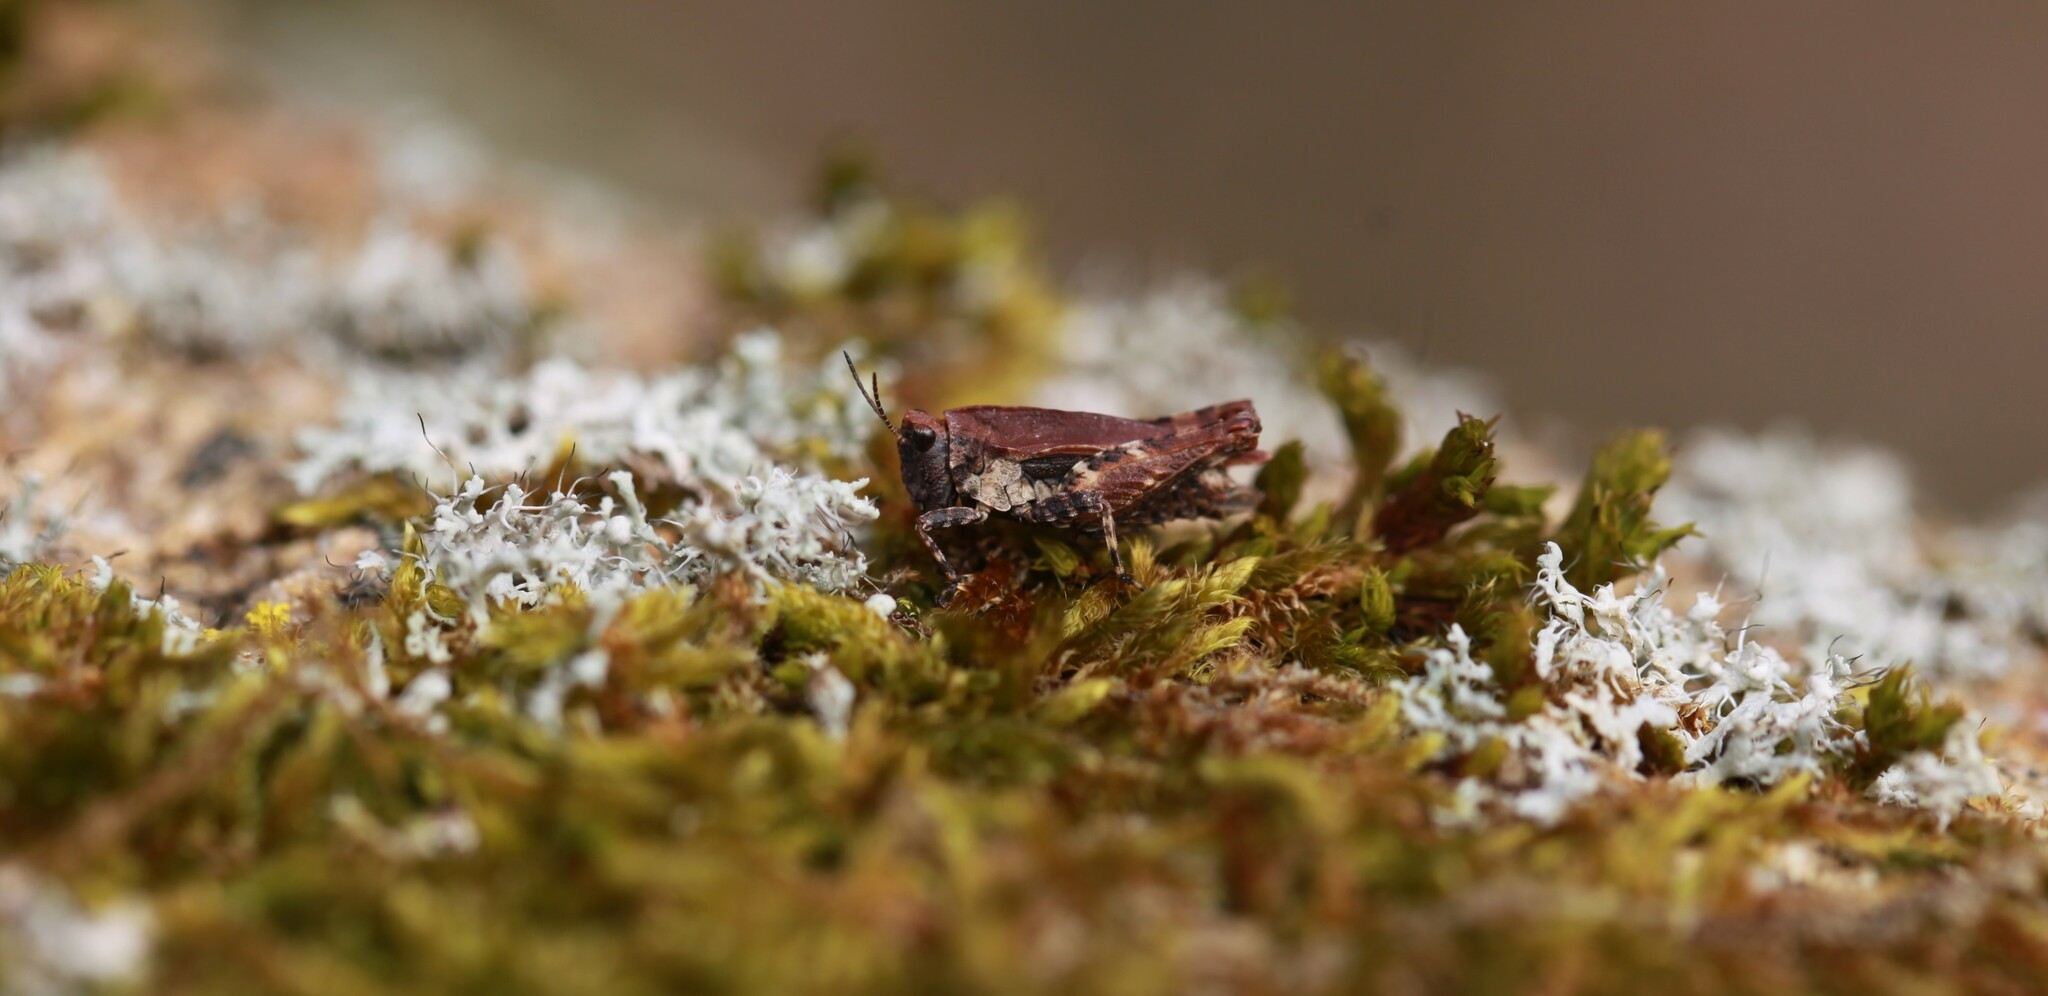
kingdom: Animalia
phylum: Arthropoda
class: Insecta
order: Orthoptera
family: Tetrigidae
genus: Tetrix
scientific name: Tetrix undulata
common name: Common groundhopper
